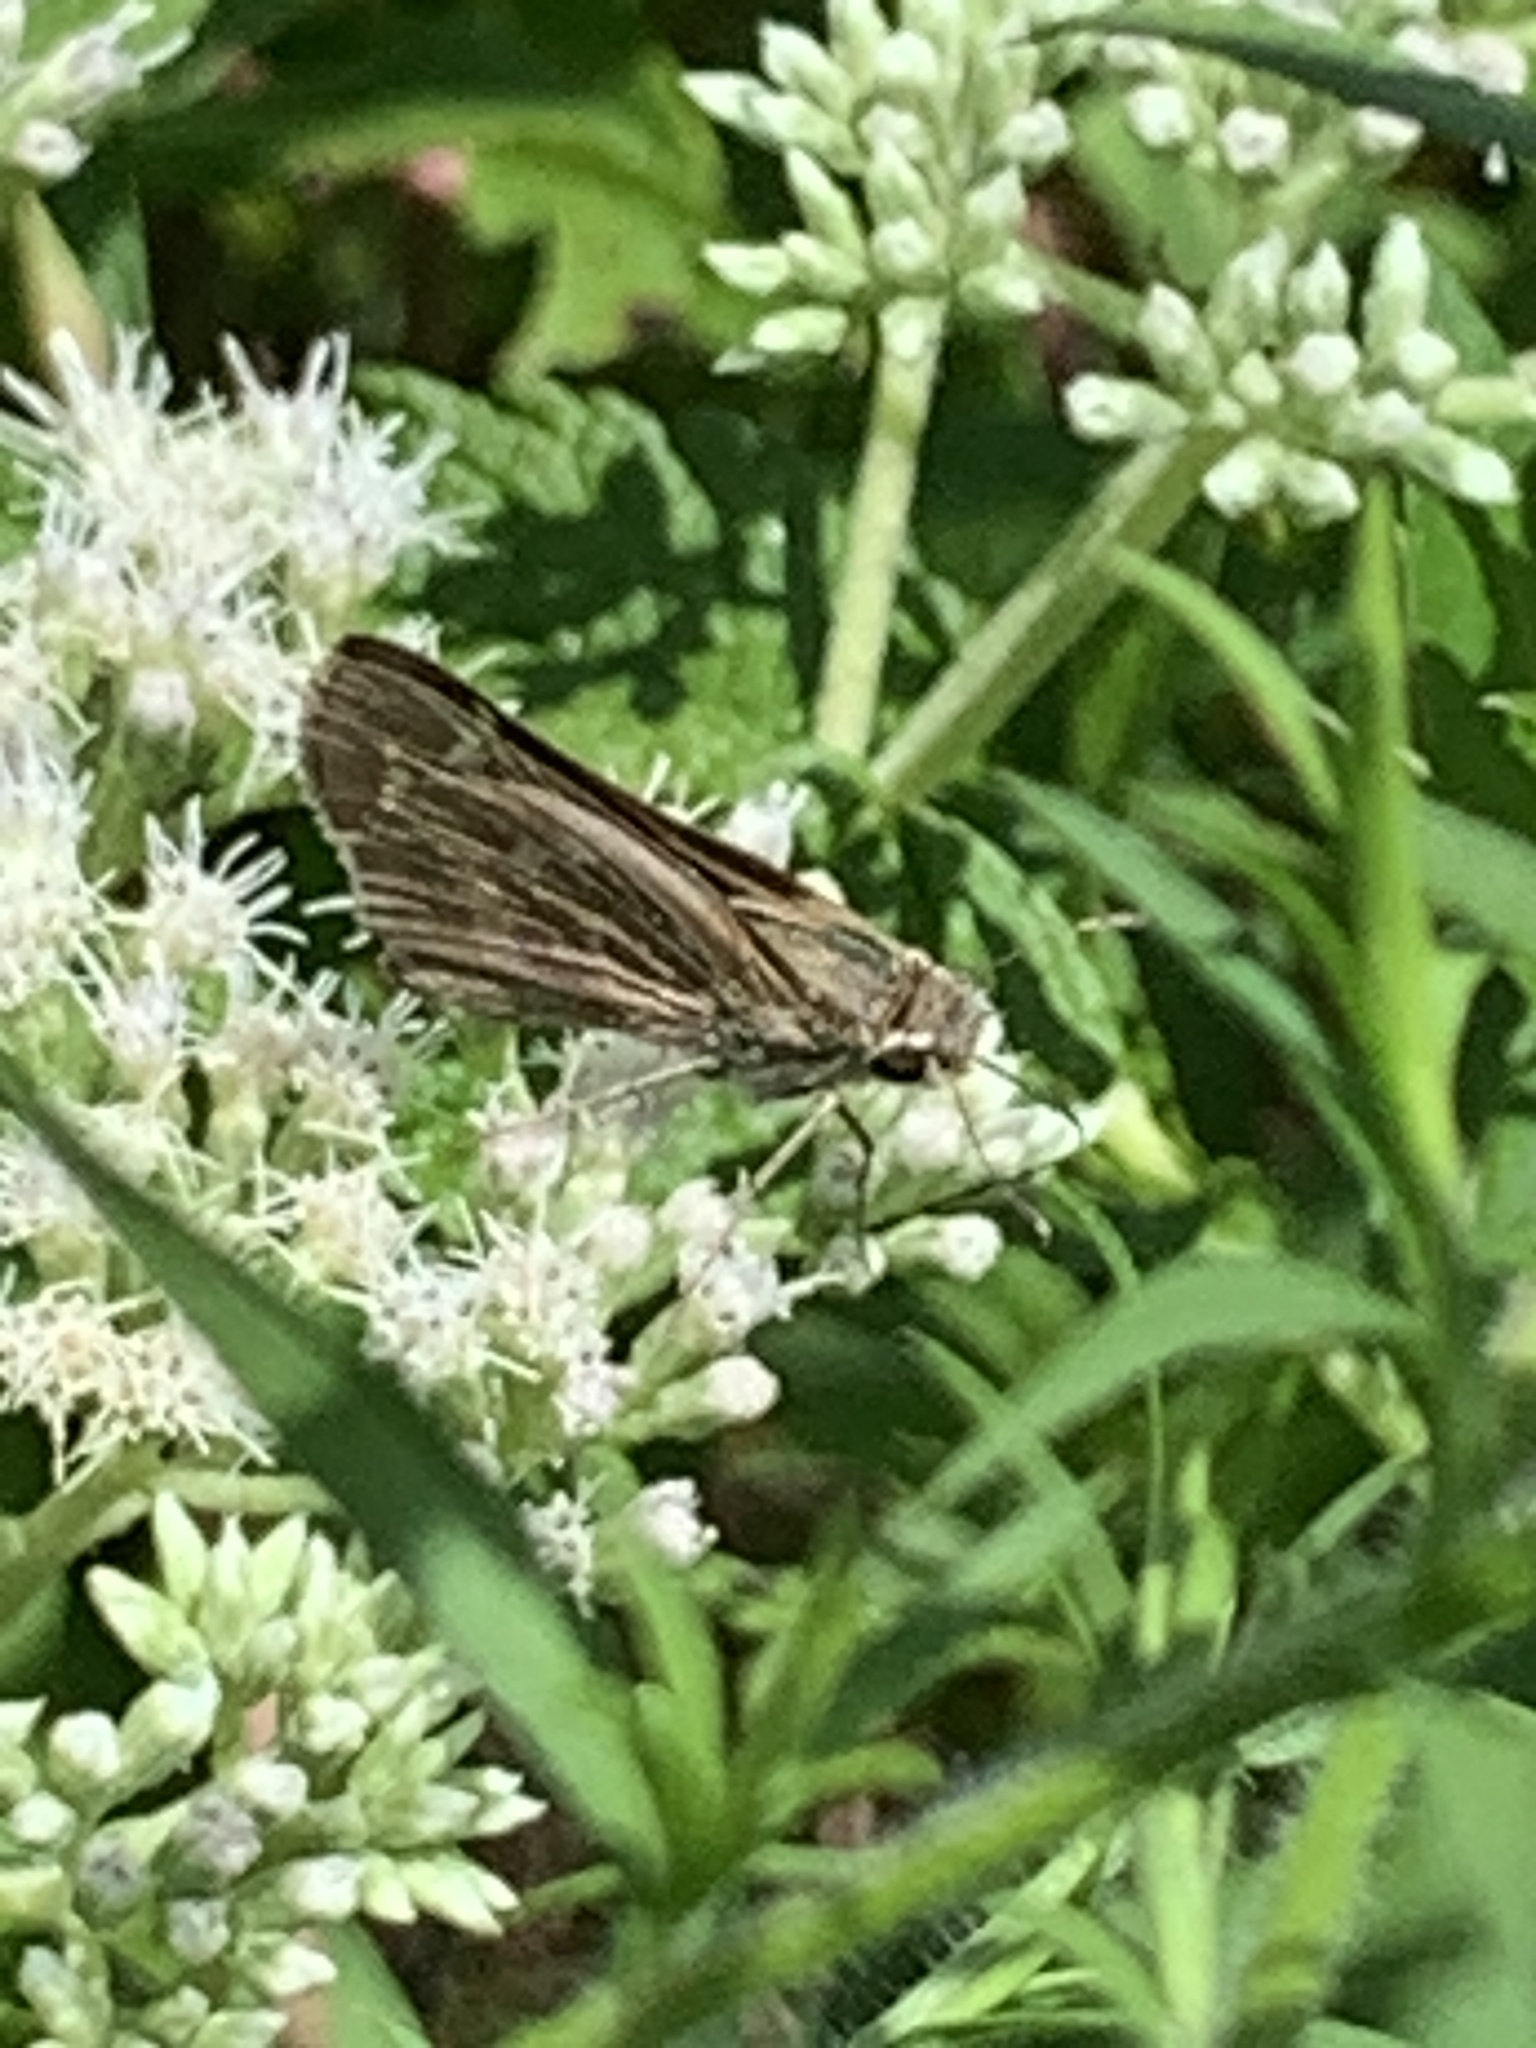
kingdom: Animalia
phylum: Arthropoda
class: Insecta
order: Lepidoptera
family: Hesperiidae
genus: Atalopedes
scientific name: Atalopedes
